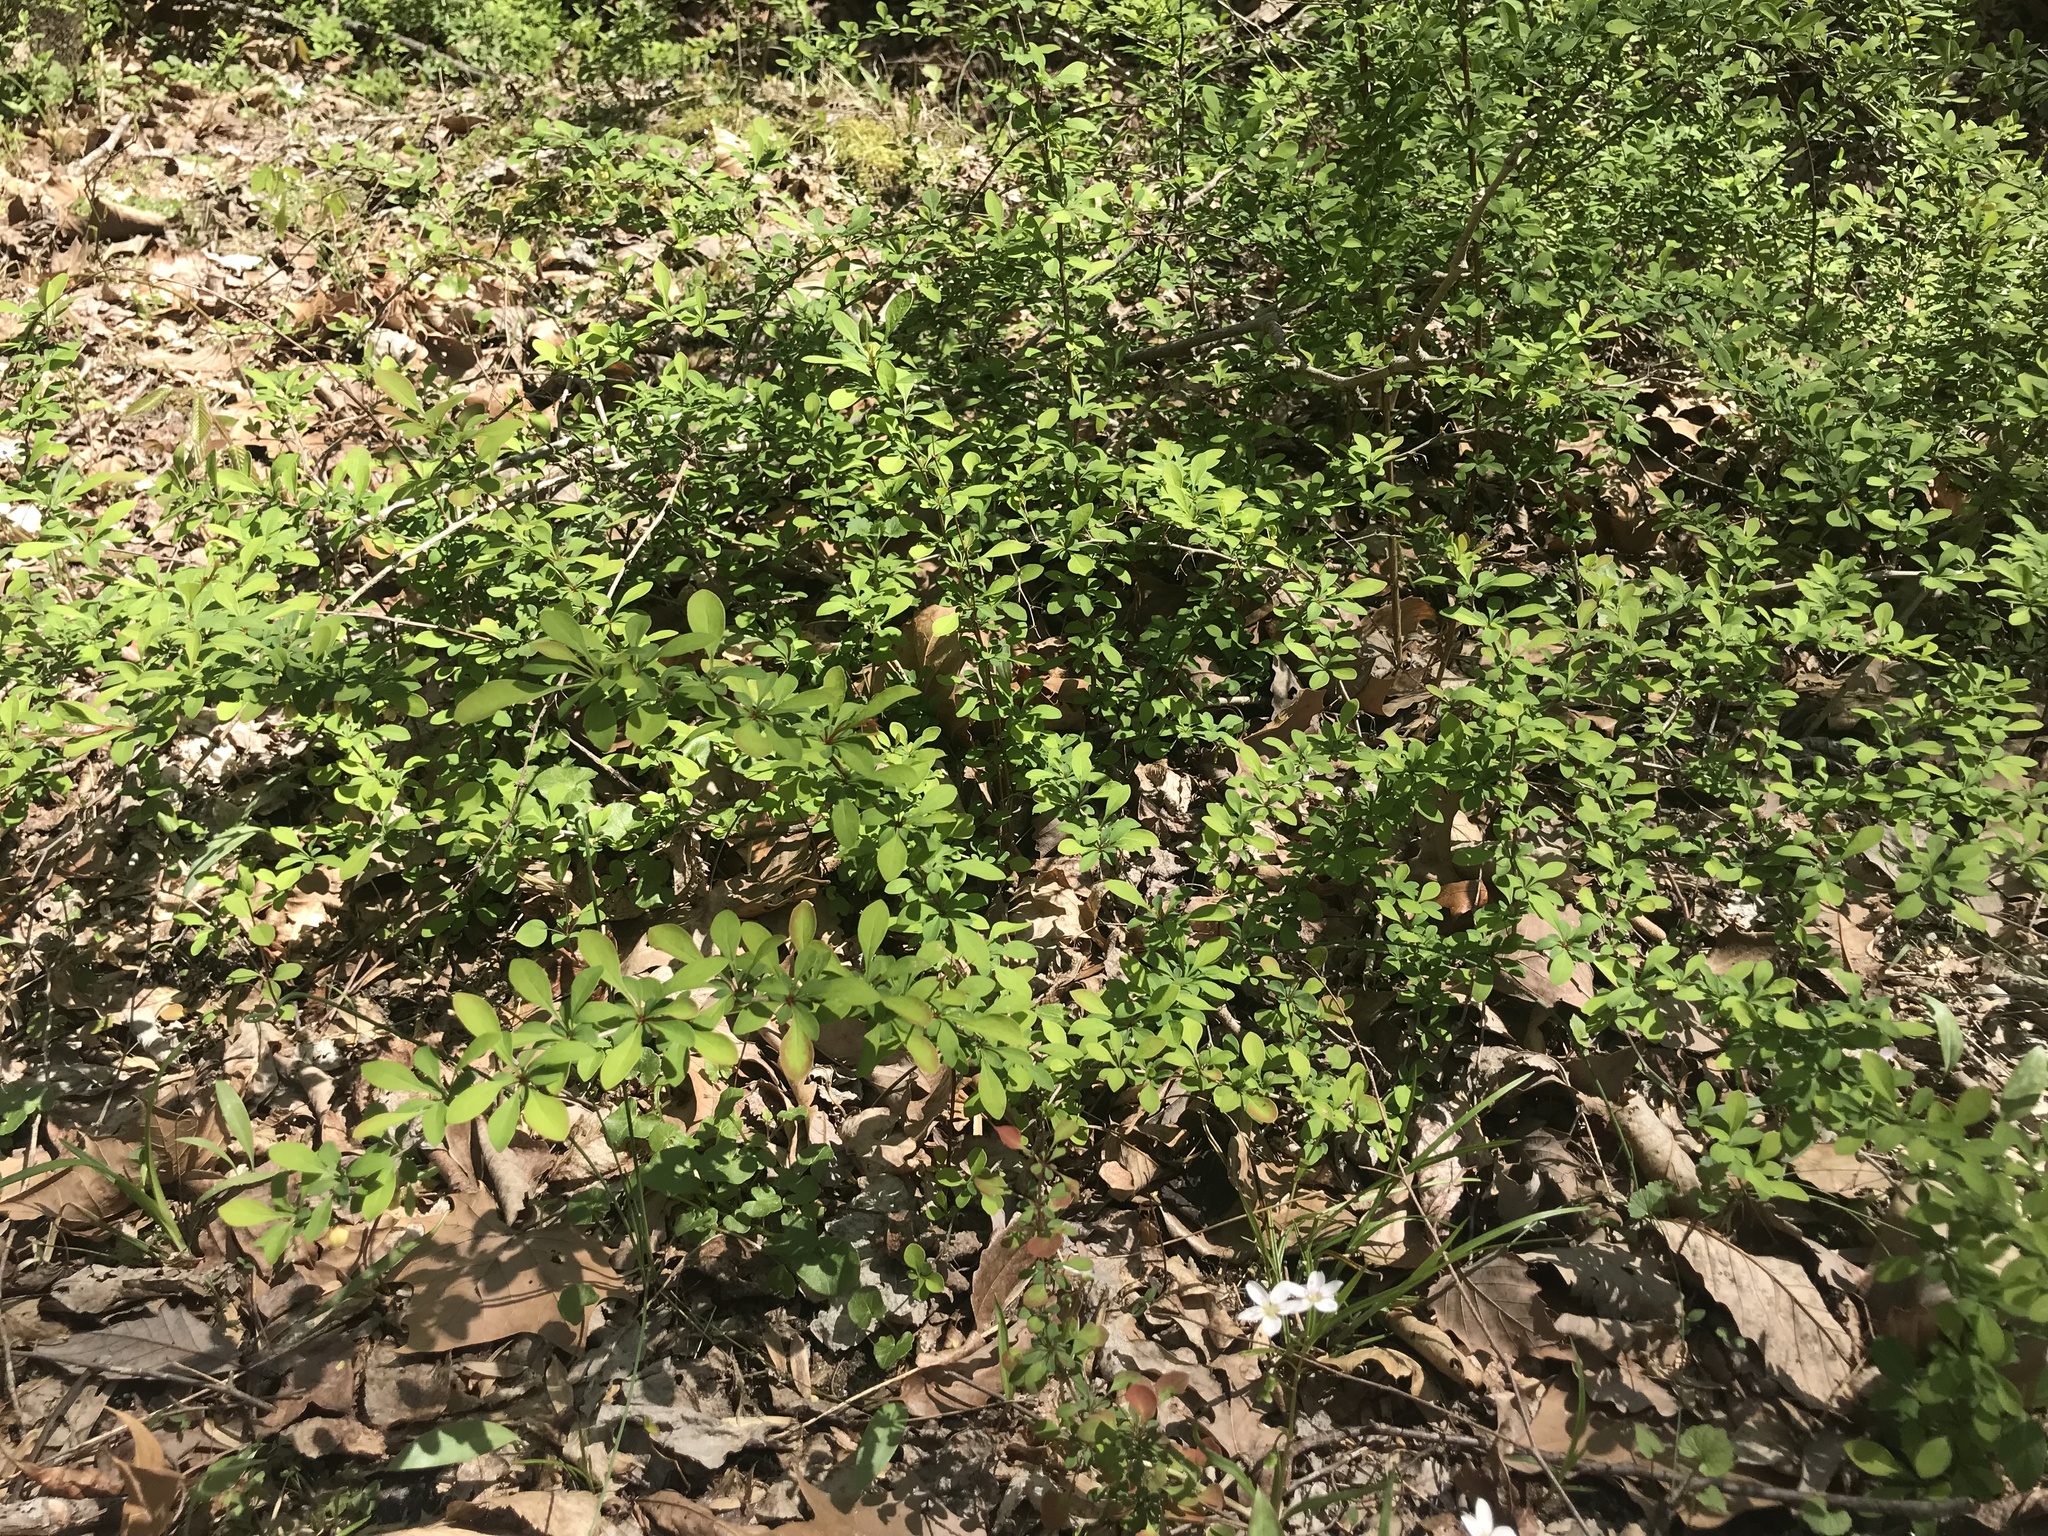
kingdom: Plantae
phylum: Tracheophyta
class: Magnoliopsida
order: Ranunculales
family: Berberidaceae
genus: Berberis
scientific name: Berberis thunbergii
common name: Japanese barberry
